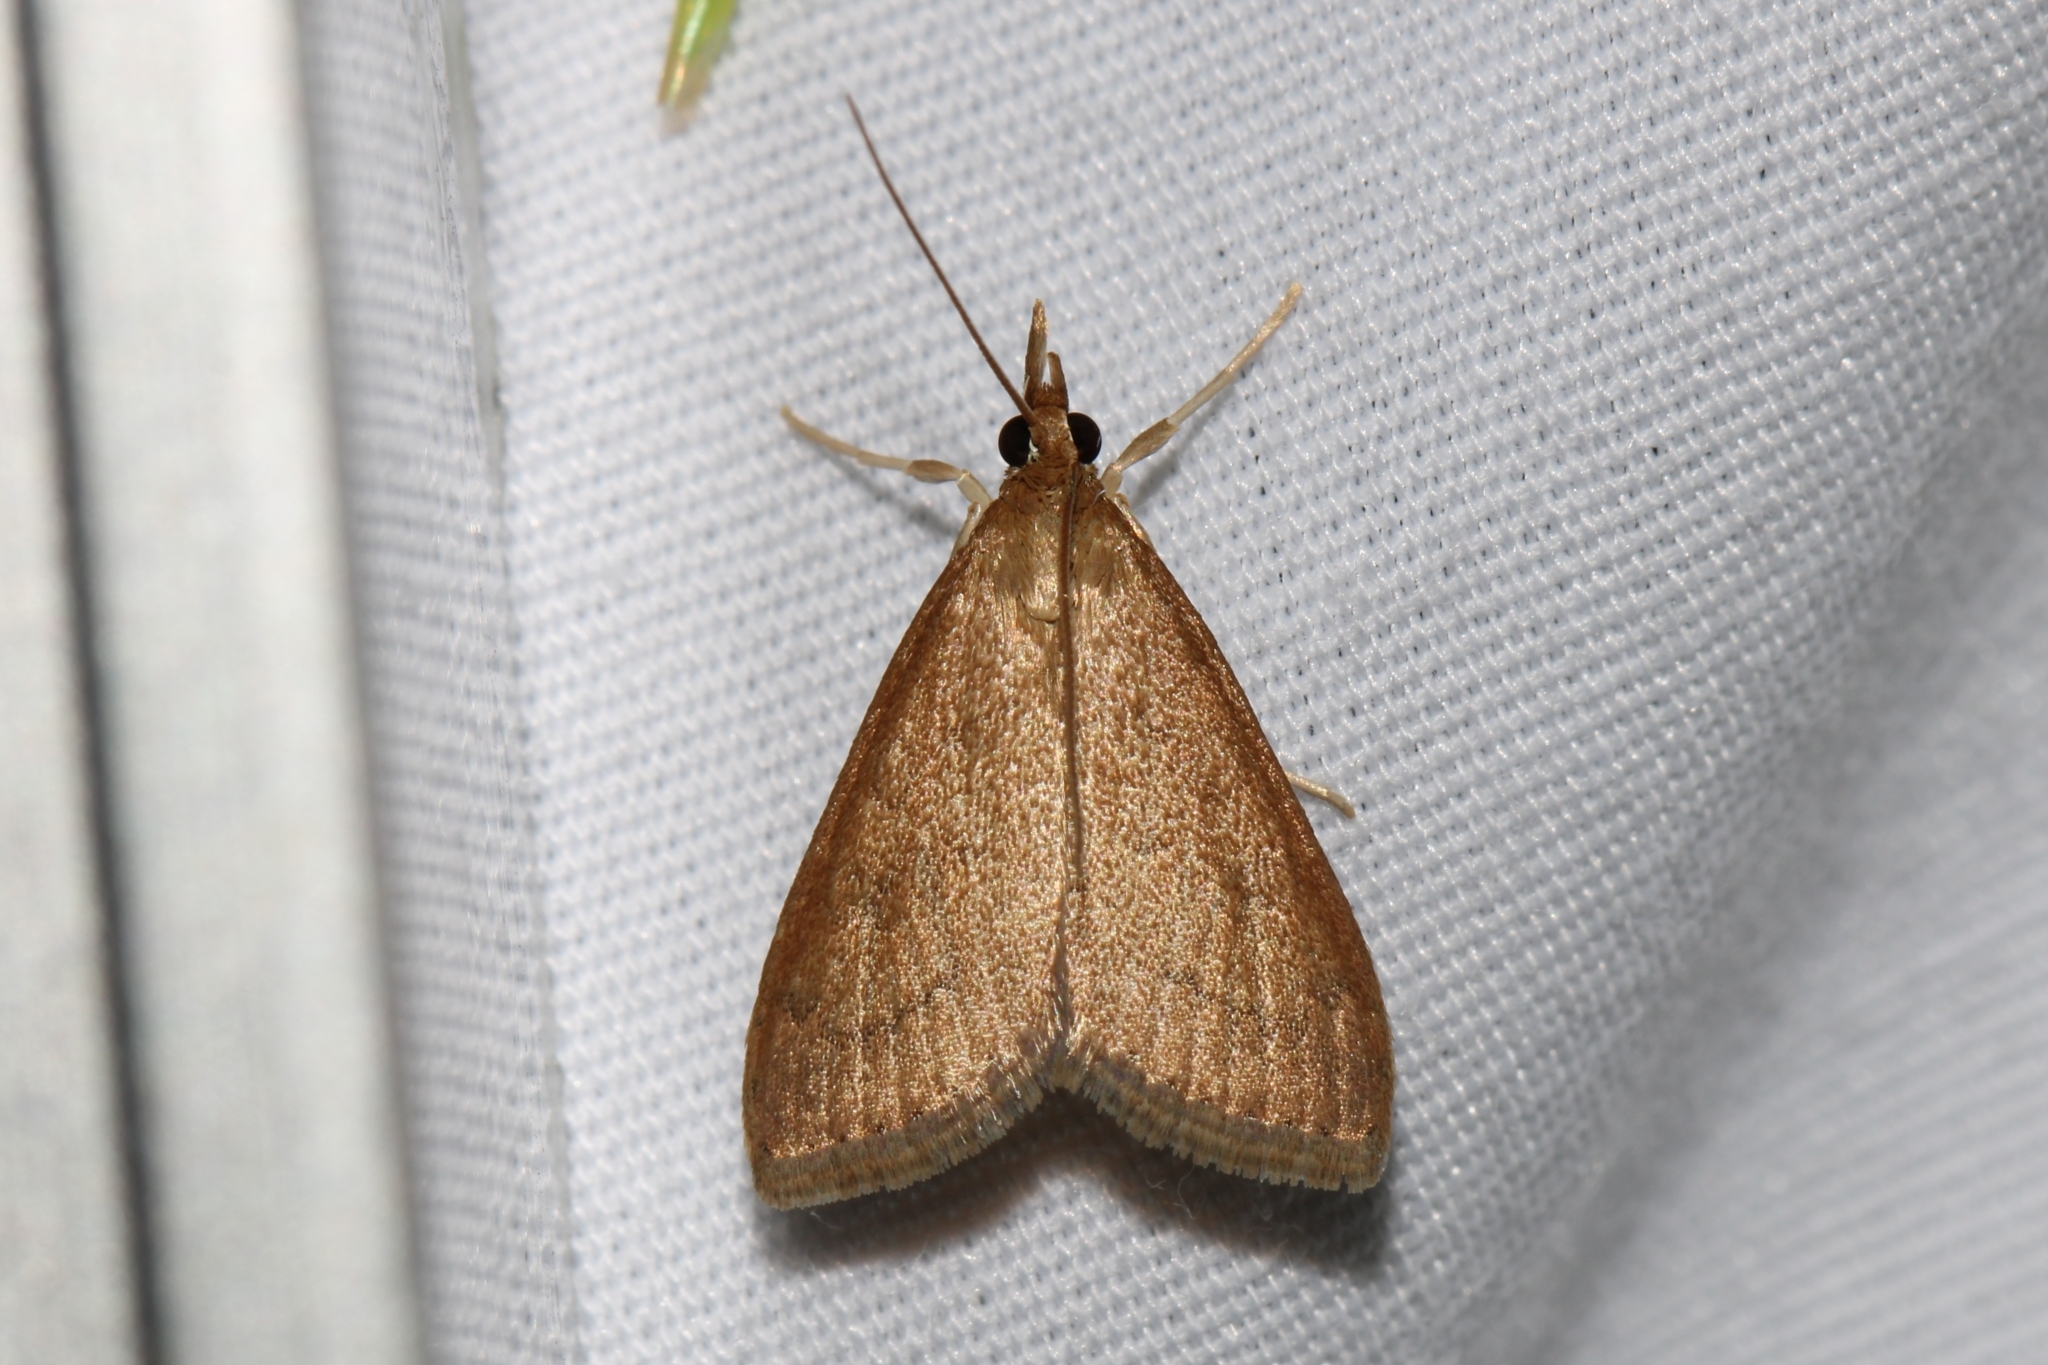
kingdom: Animalia
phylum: Arthropoda
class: Insecta
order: Lepidoptera
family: Crambidae
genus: Udea
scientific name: Udea rubigalis
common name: Celery leaftier moth
